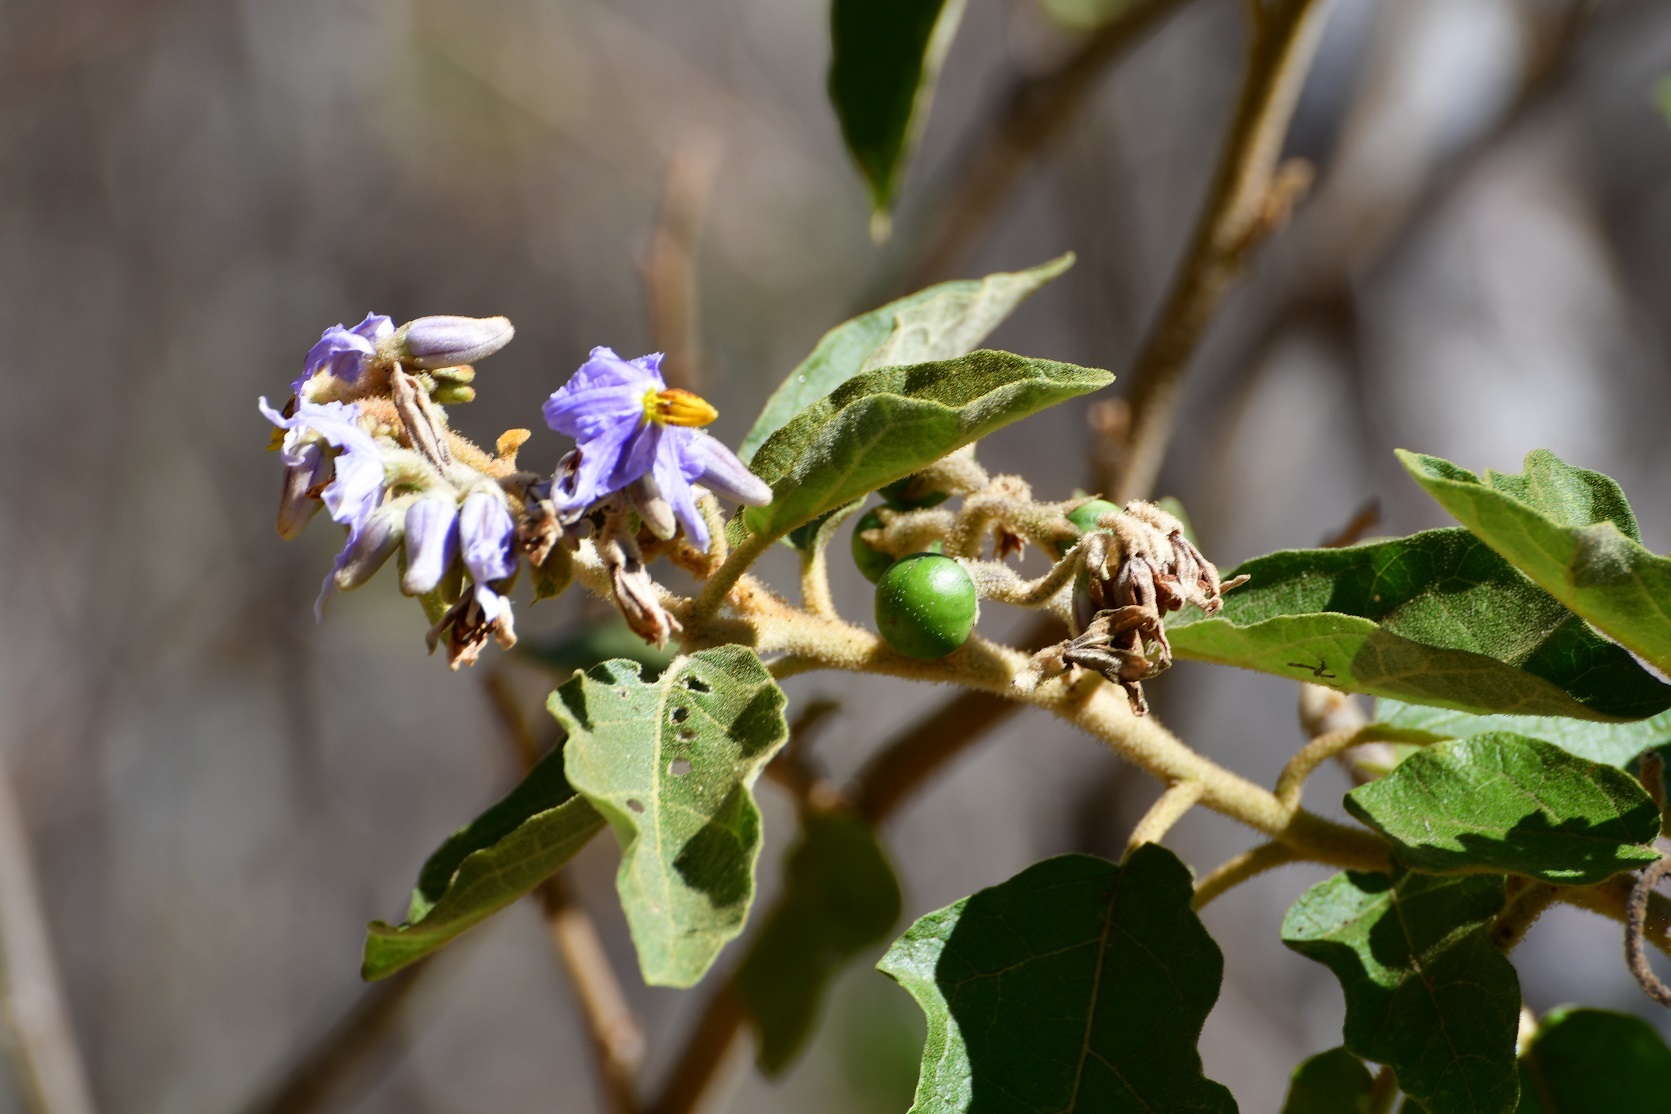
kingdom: Plantae
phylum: Tracheophyta
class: Magnoliopsida
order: Solanales
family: Solanaceae
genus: Solanum
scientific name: Solanum lanceolatum
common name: Orangeberry nightshade
